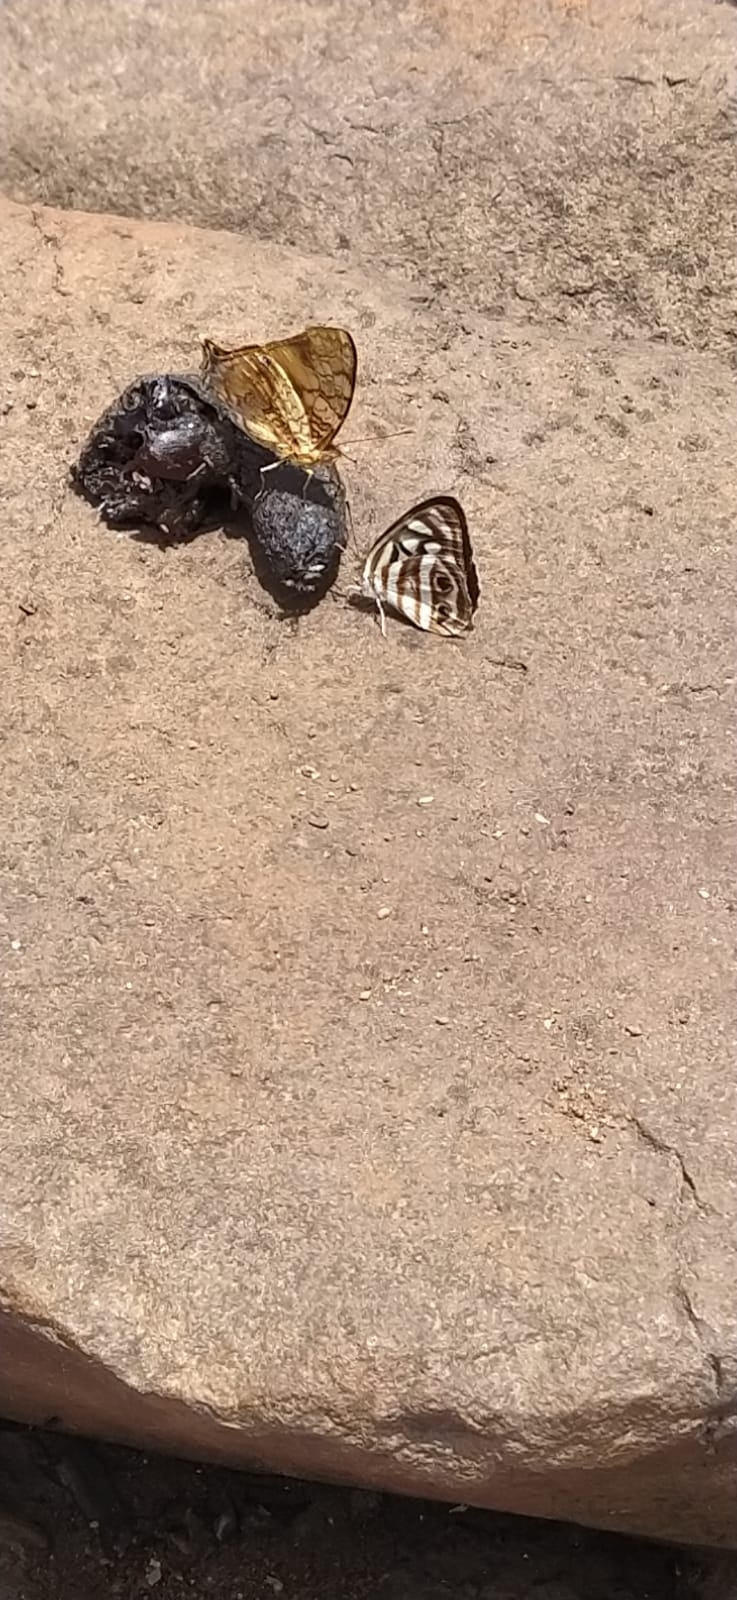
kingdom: Animalia
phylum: Arthropoda
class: Insecta
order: Lepidoptera
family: Nymphalidae
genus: Hypanartia
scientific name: Hypanartia lethe
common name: Orange mapwing
